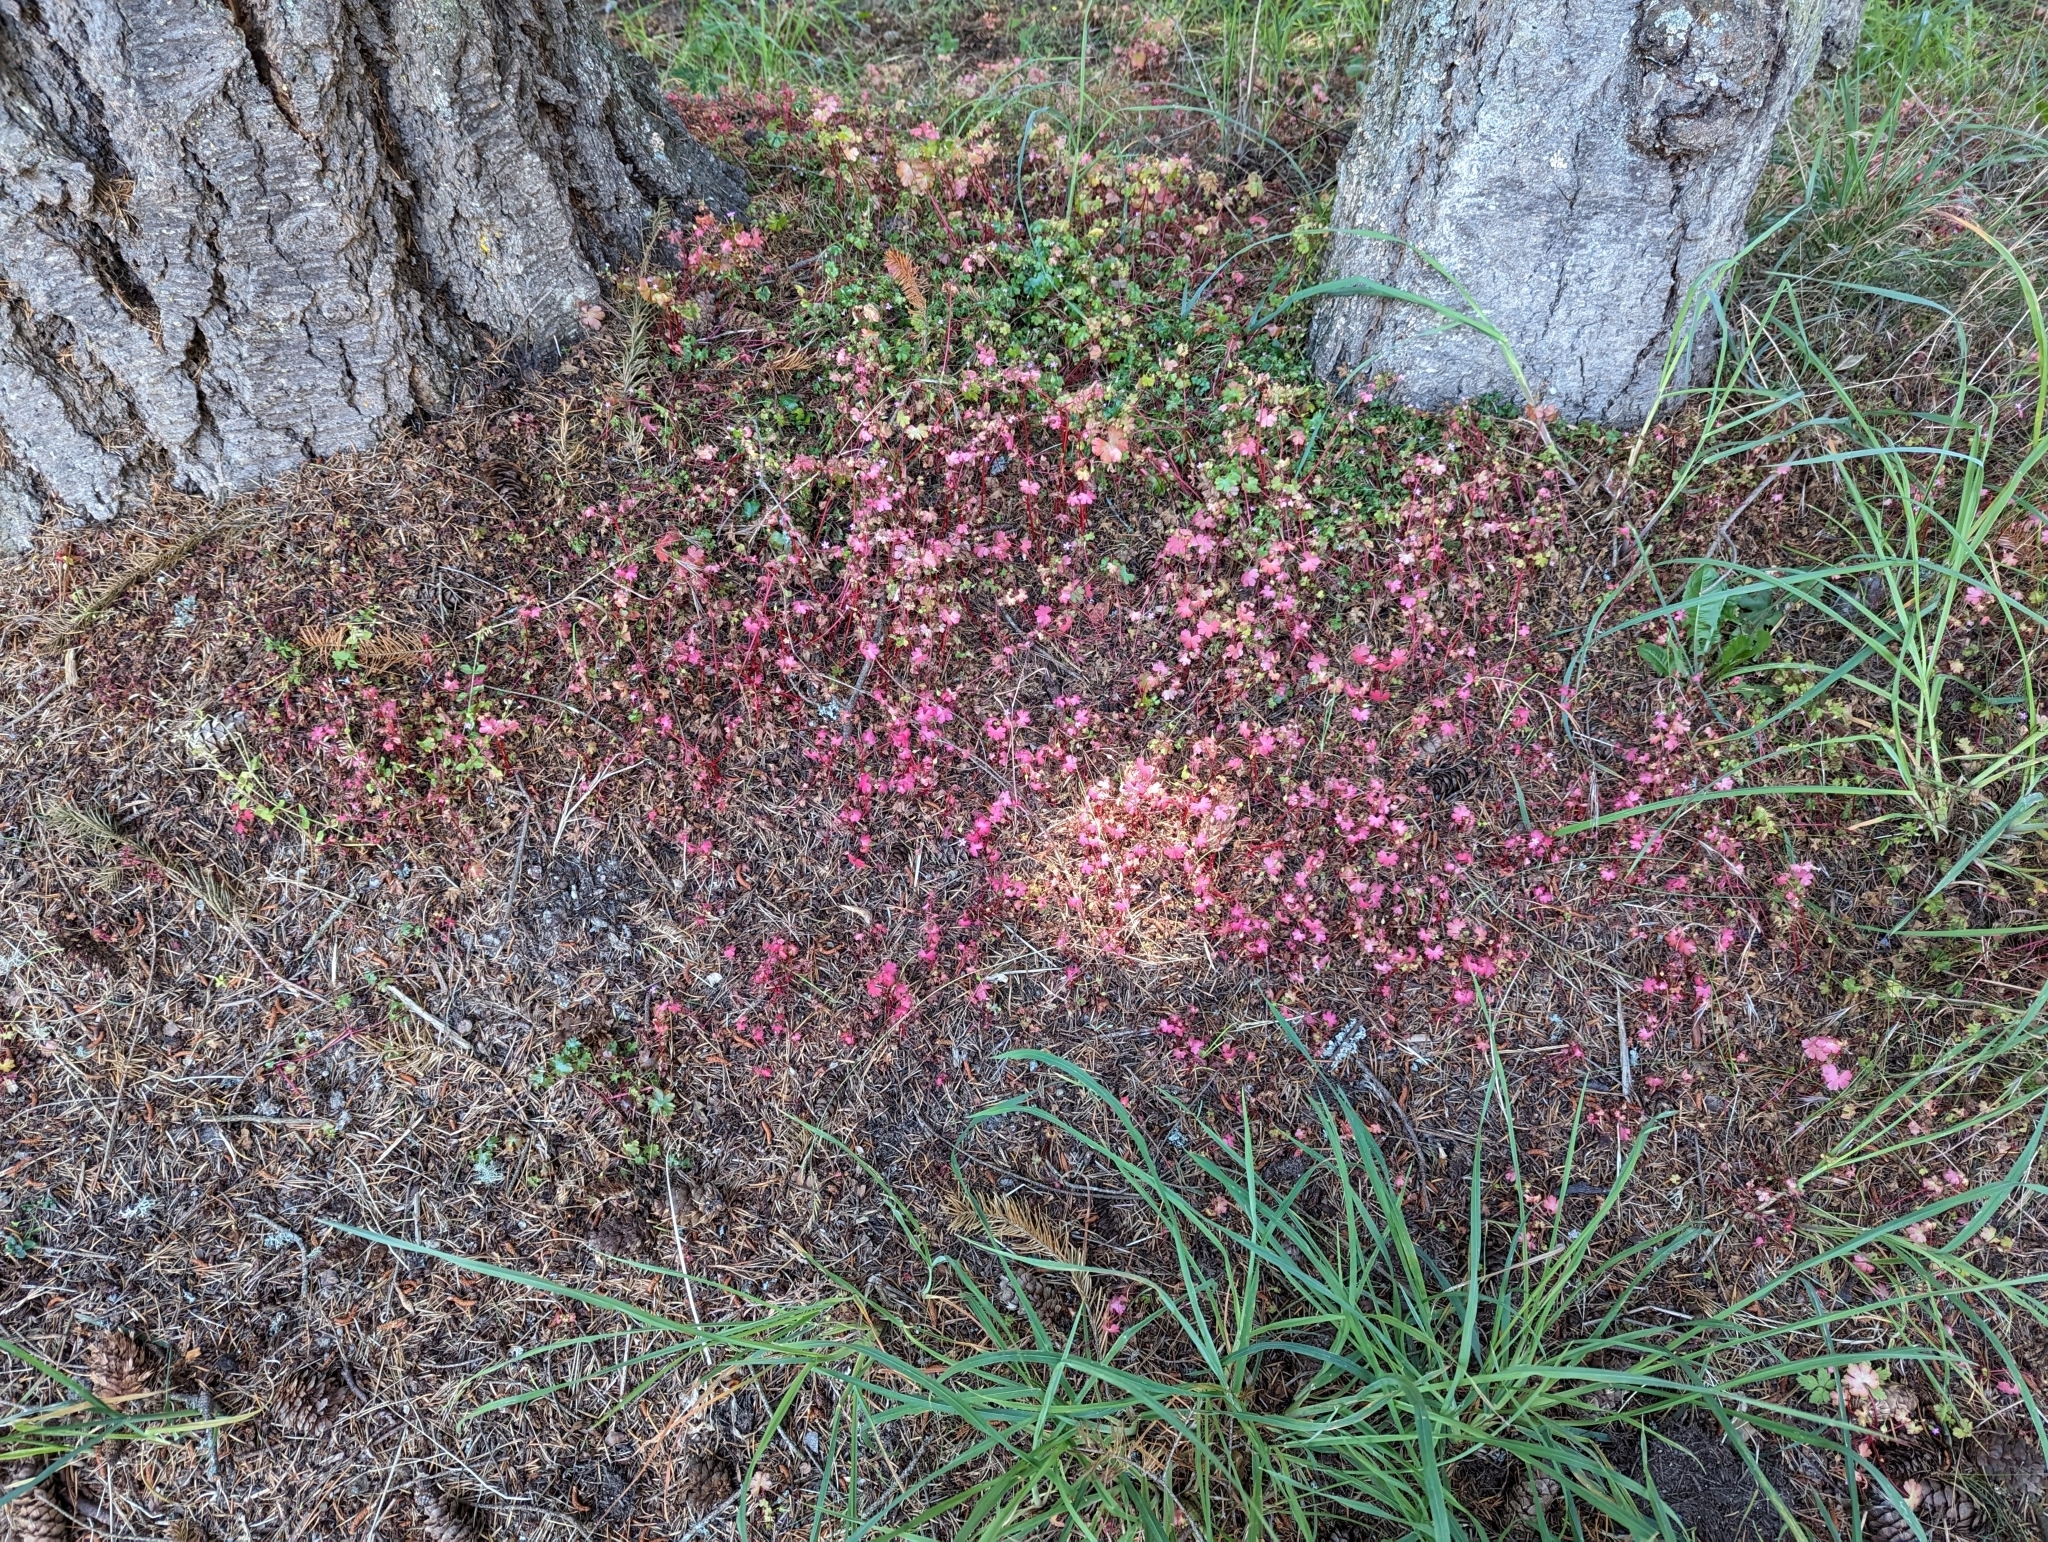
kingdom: Plantae
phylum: Tracheophyta
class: Magnoliopsida
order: Geraniales
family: Geraniaceae
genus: Geranium
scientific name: Geranium lucidum
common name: Shining crane's-bill
